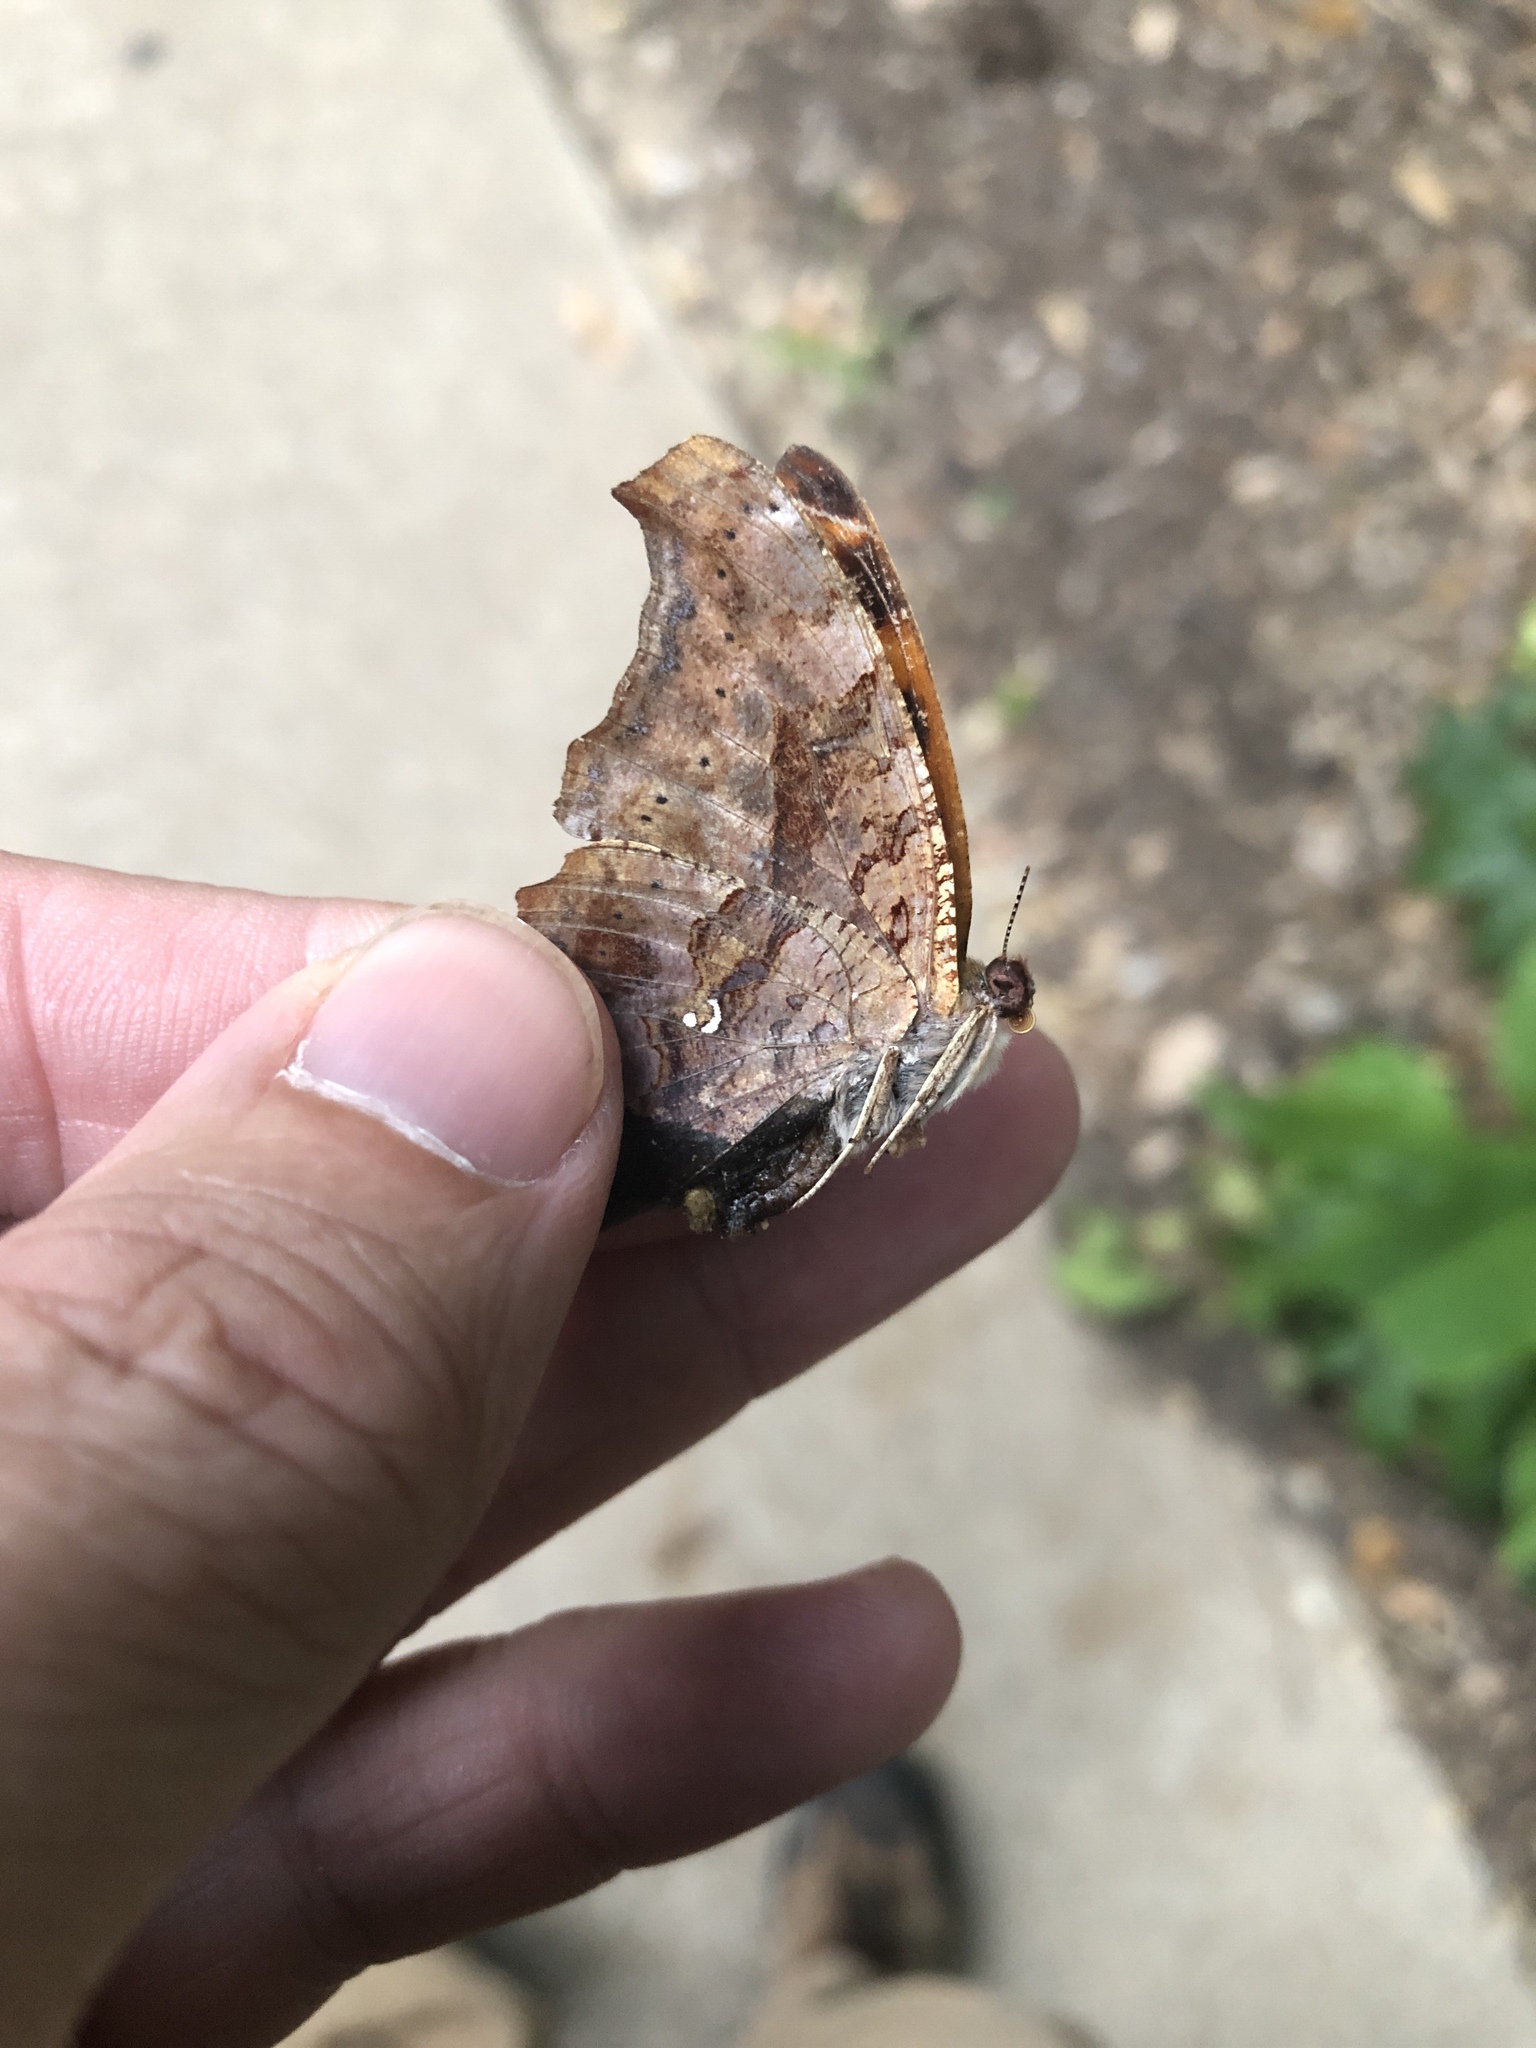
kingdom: Animalia
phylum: Arthropoda
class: Insecta
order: Lepidoptera
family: Nymphalidae
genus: Polygonia
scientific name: Polygonia interrogationis
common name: Question mark
